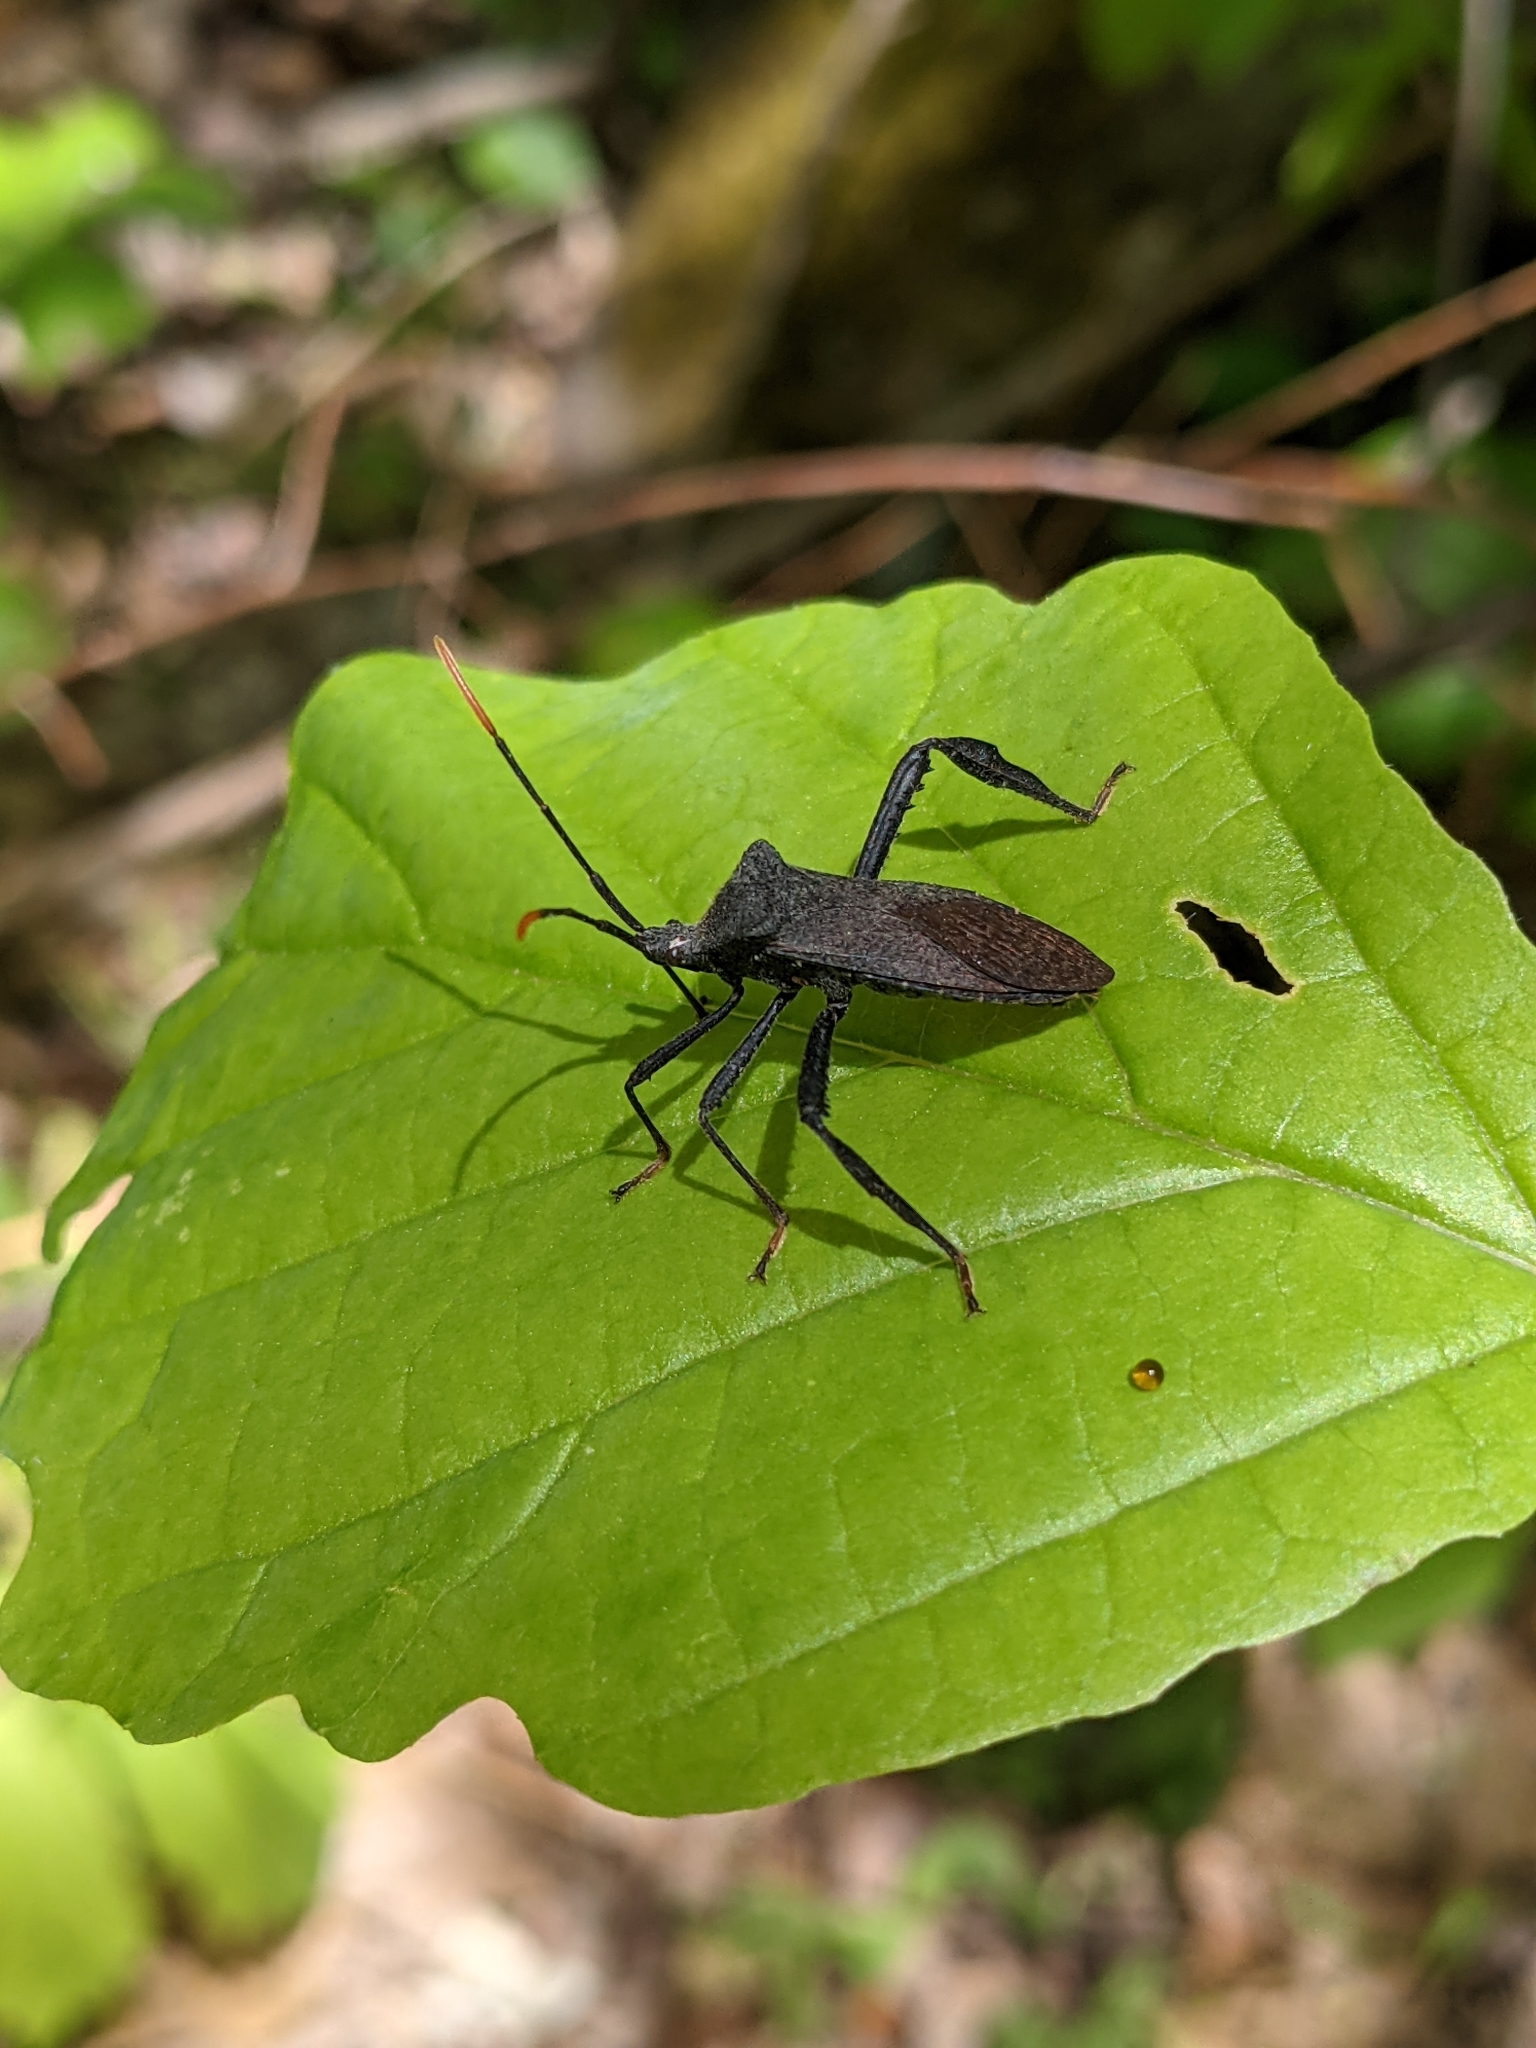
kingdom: Animalia
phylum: Arthropoda
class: Insecta
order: Hemiptera
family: Coreidae
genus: Acanthocephala
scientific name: Acanthocephala terminalis
